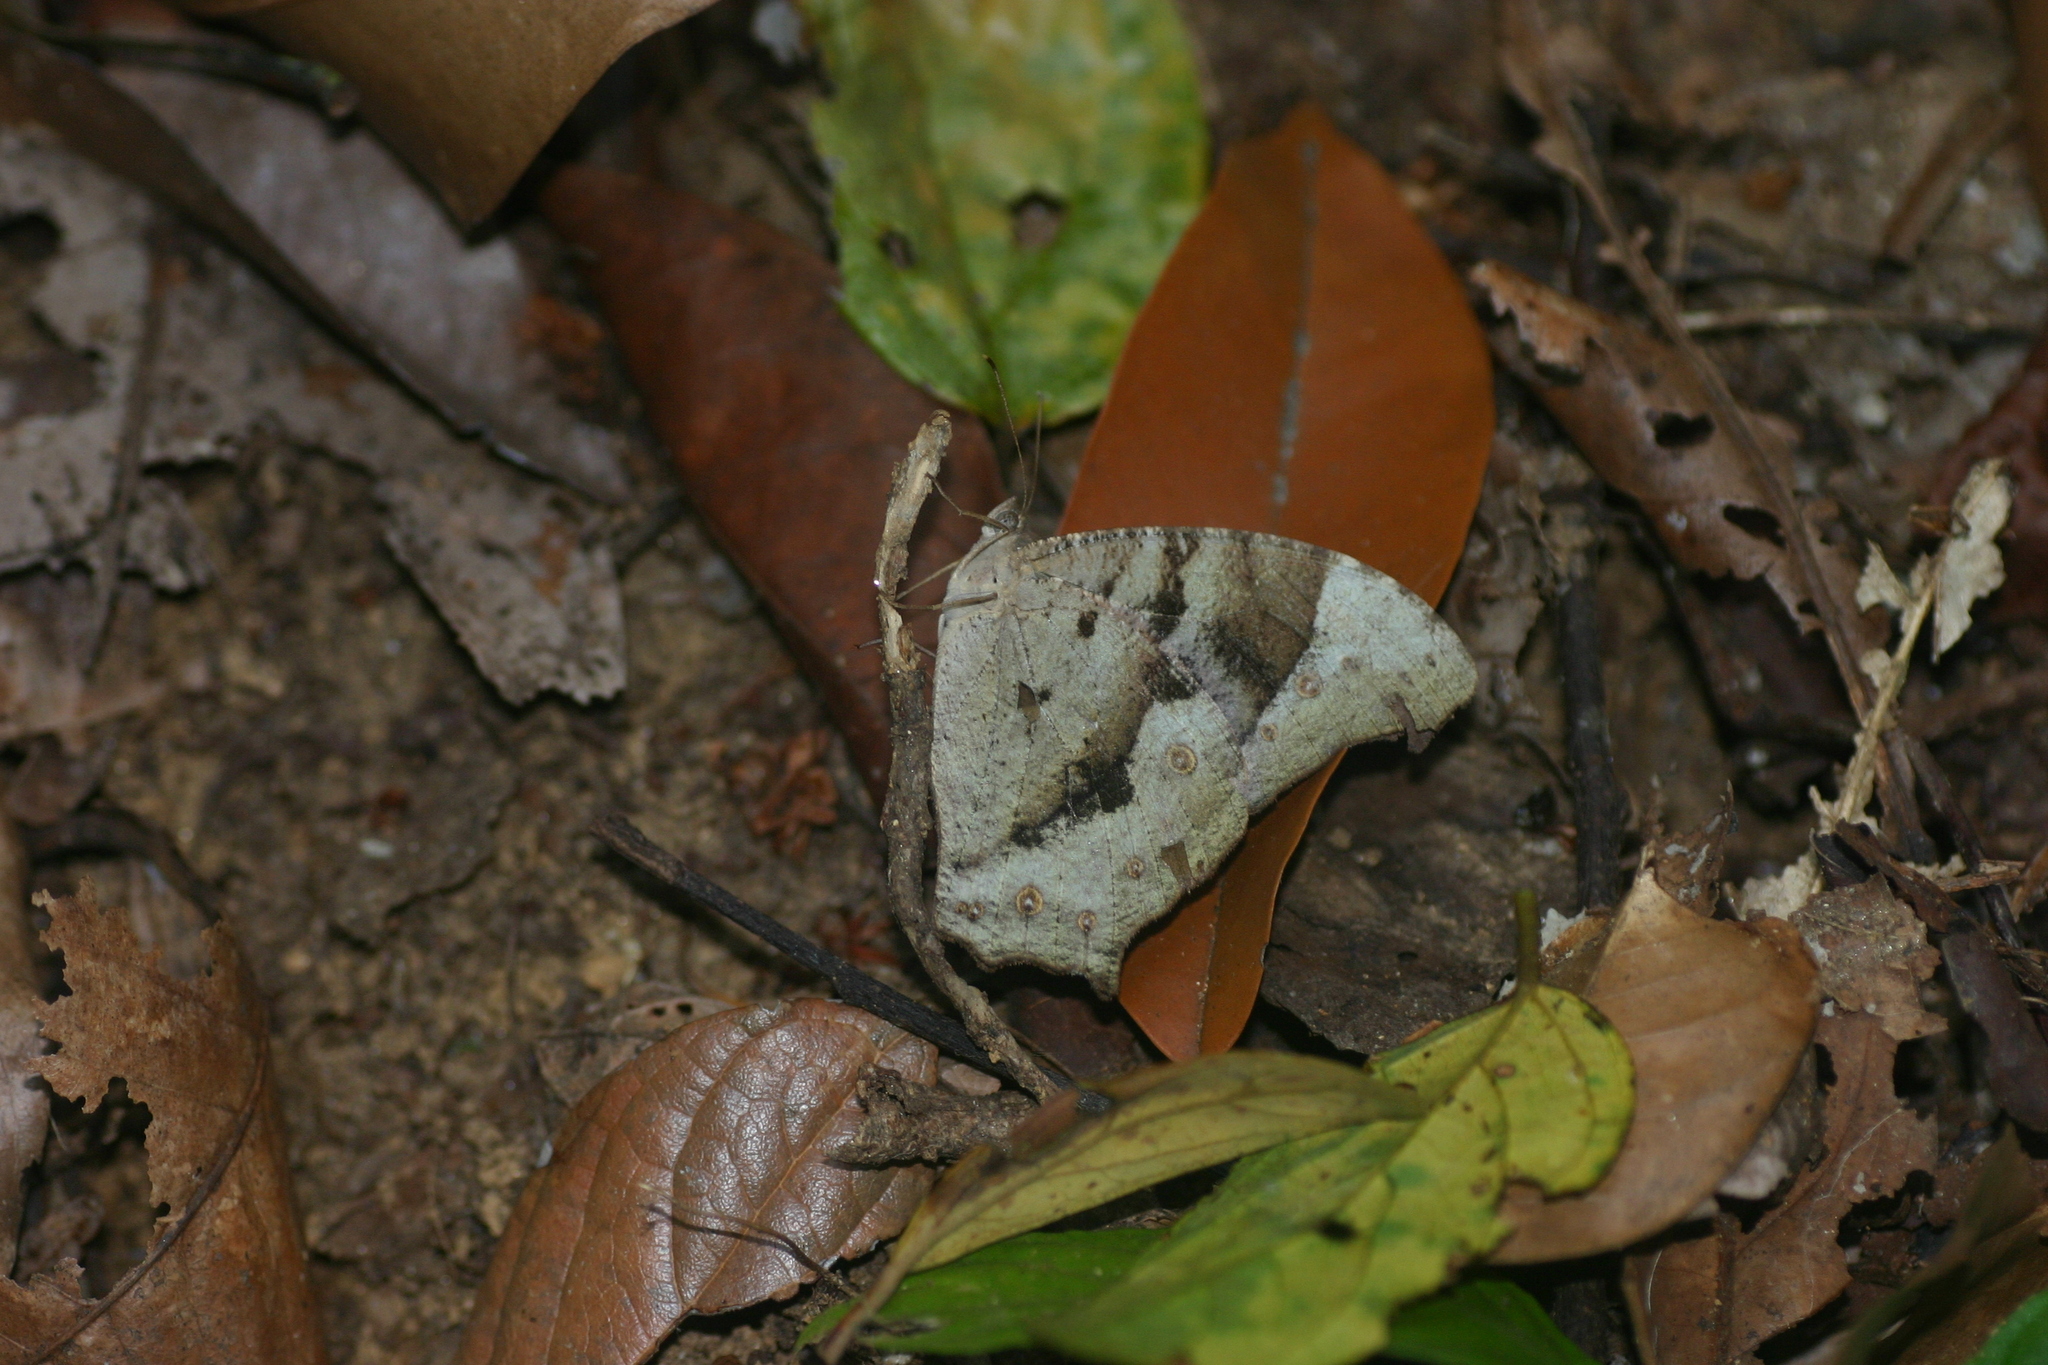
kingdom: Animalia
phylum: Arthropoda
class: Insecta
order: Lepidoptera
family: Nymphalidae
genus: Melanitis
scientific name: Melanitis leda
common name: Twilight brown
